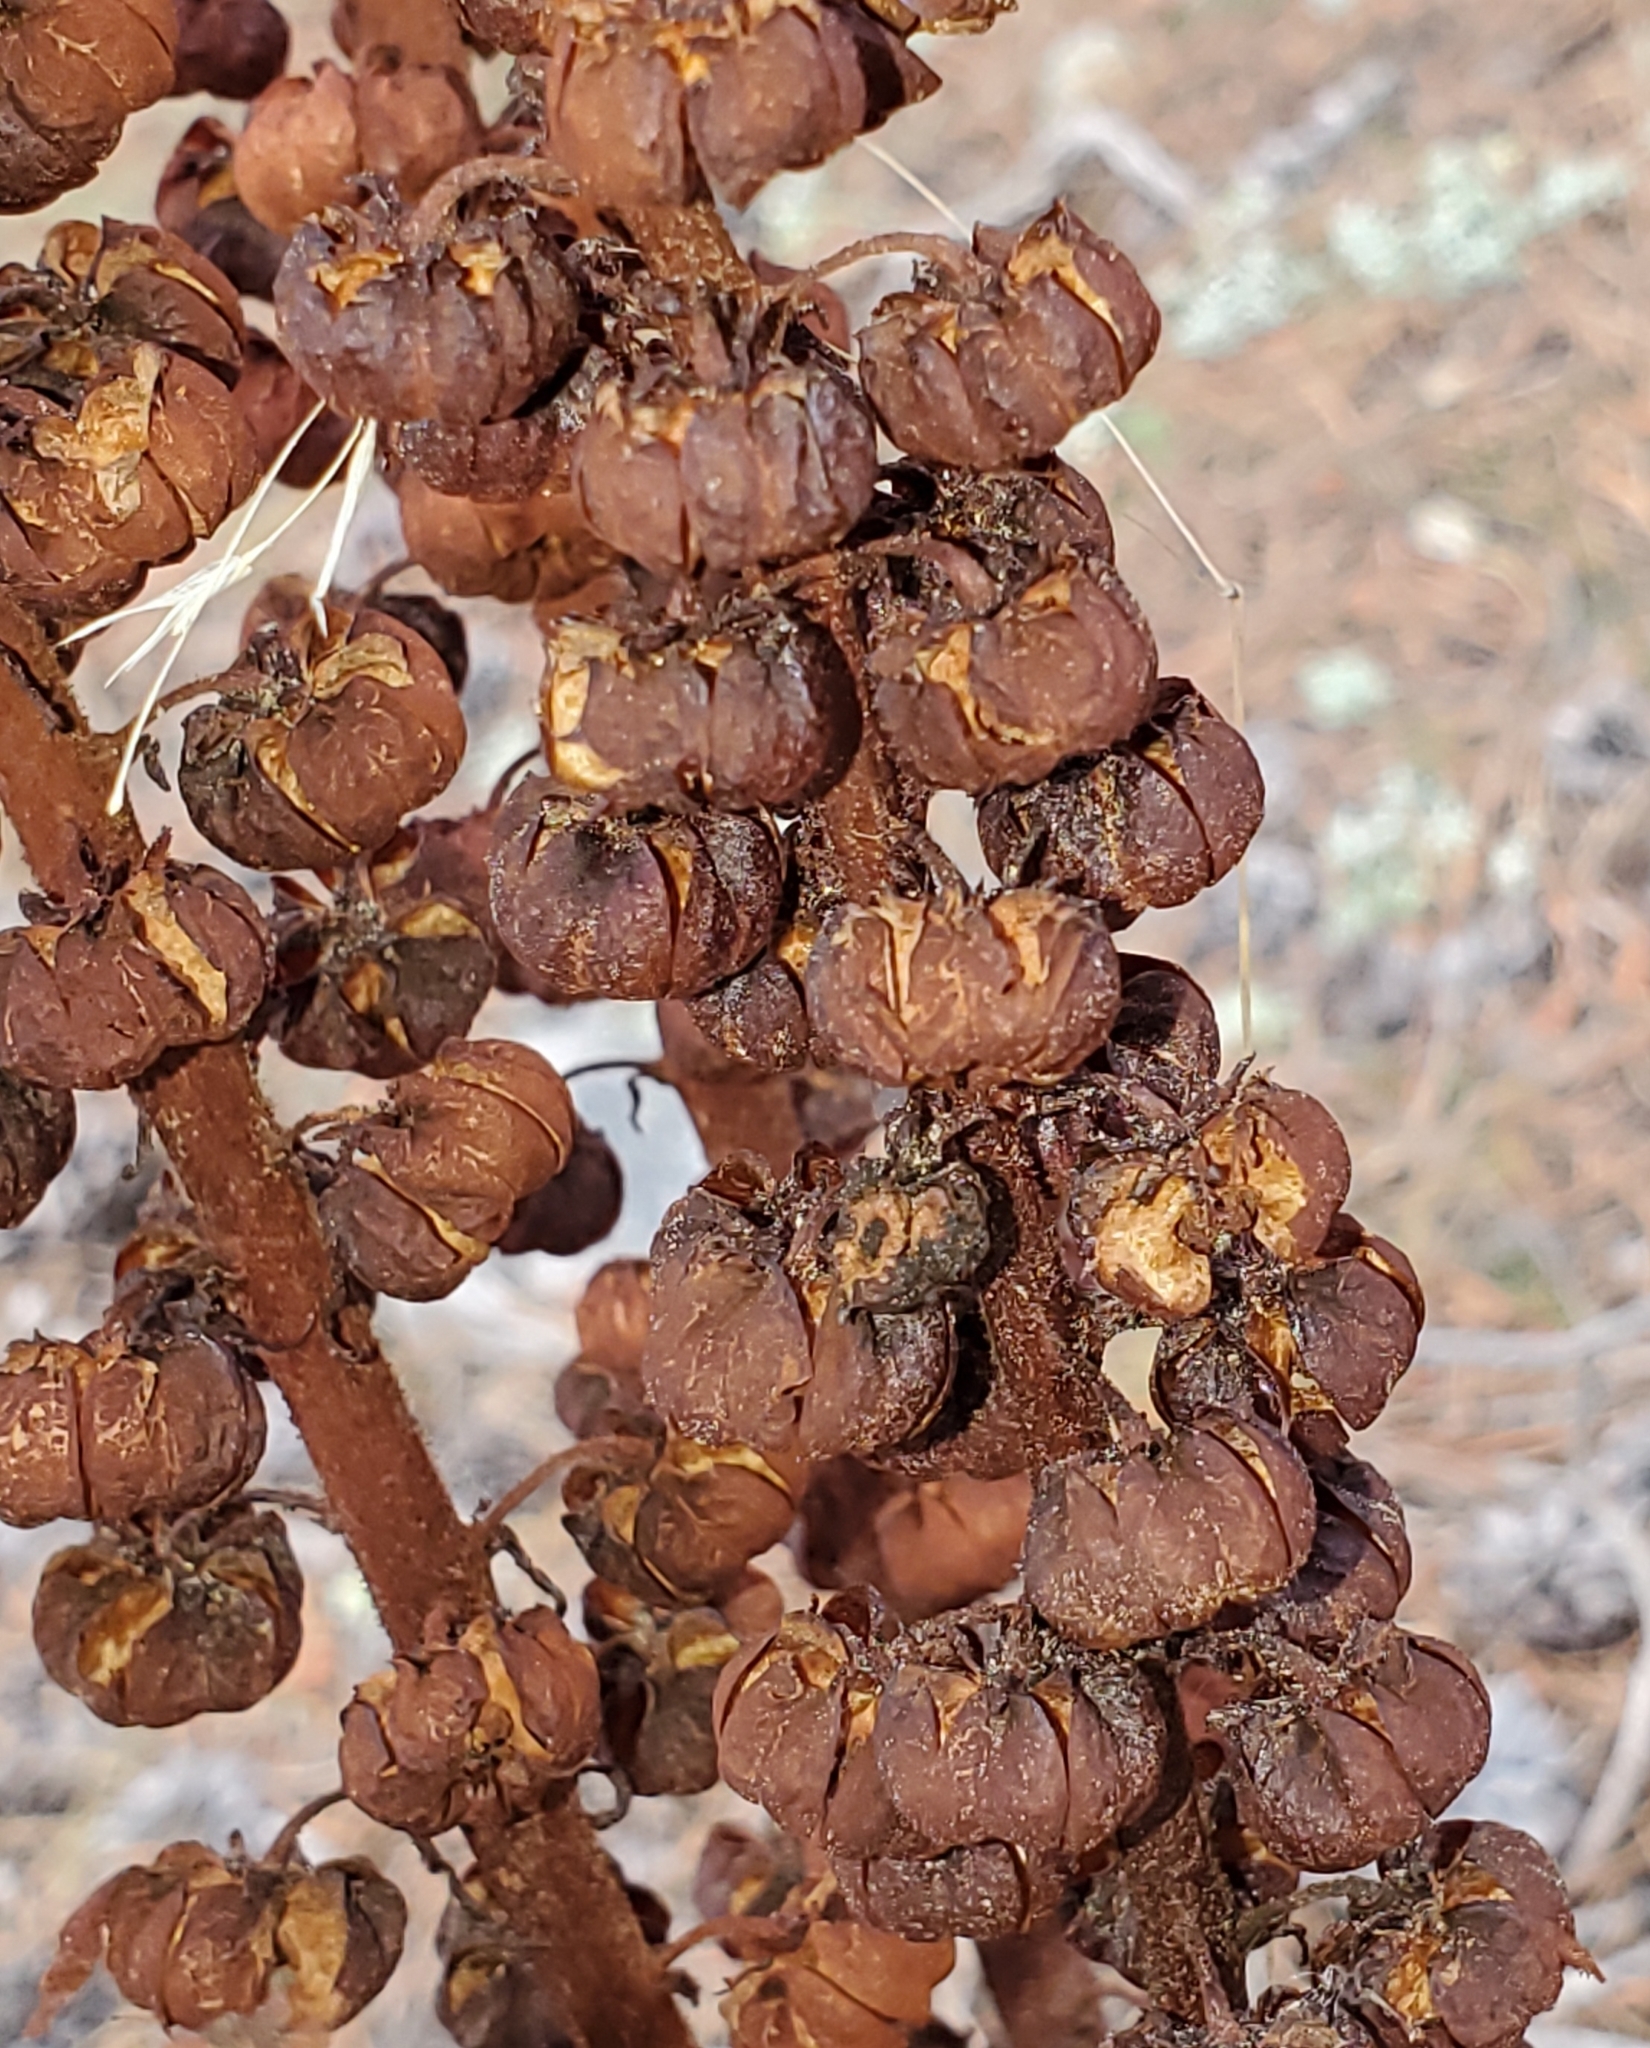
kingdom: Plantae
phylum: Tracheophyta
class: Magnoliopsida
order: Ericales
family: Ericaceae
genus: Pterospora
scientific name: Pterospora andromedea
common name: Giant bird's-nest
